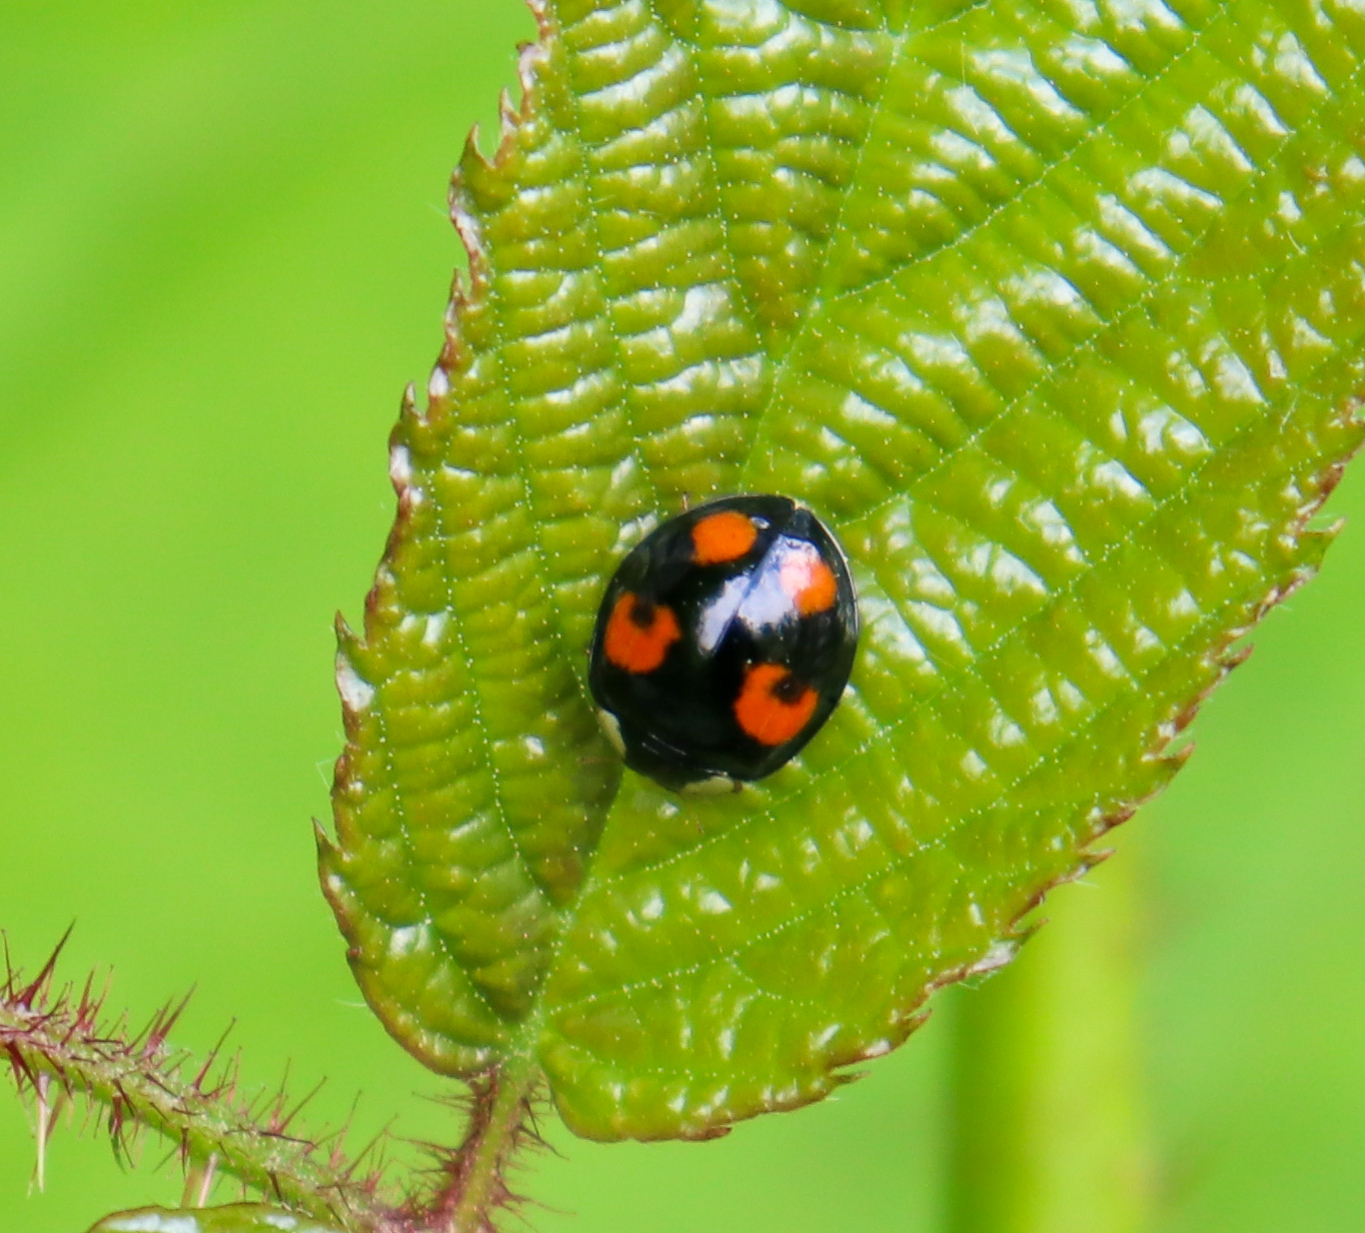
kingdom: Animalia
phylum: Arthropoda
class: Insecta
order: Coleoptera
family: Coccinellidae
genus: Harmonia
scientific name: Harmonia axyridis
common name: Harlequin ladybird
